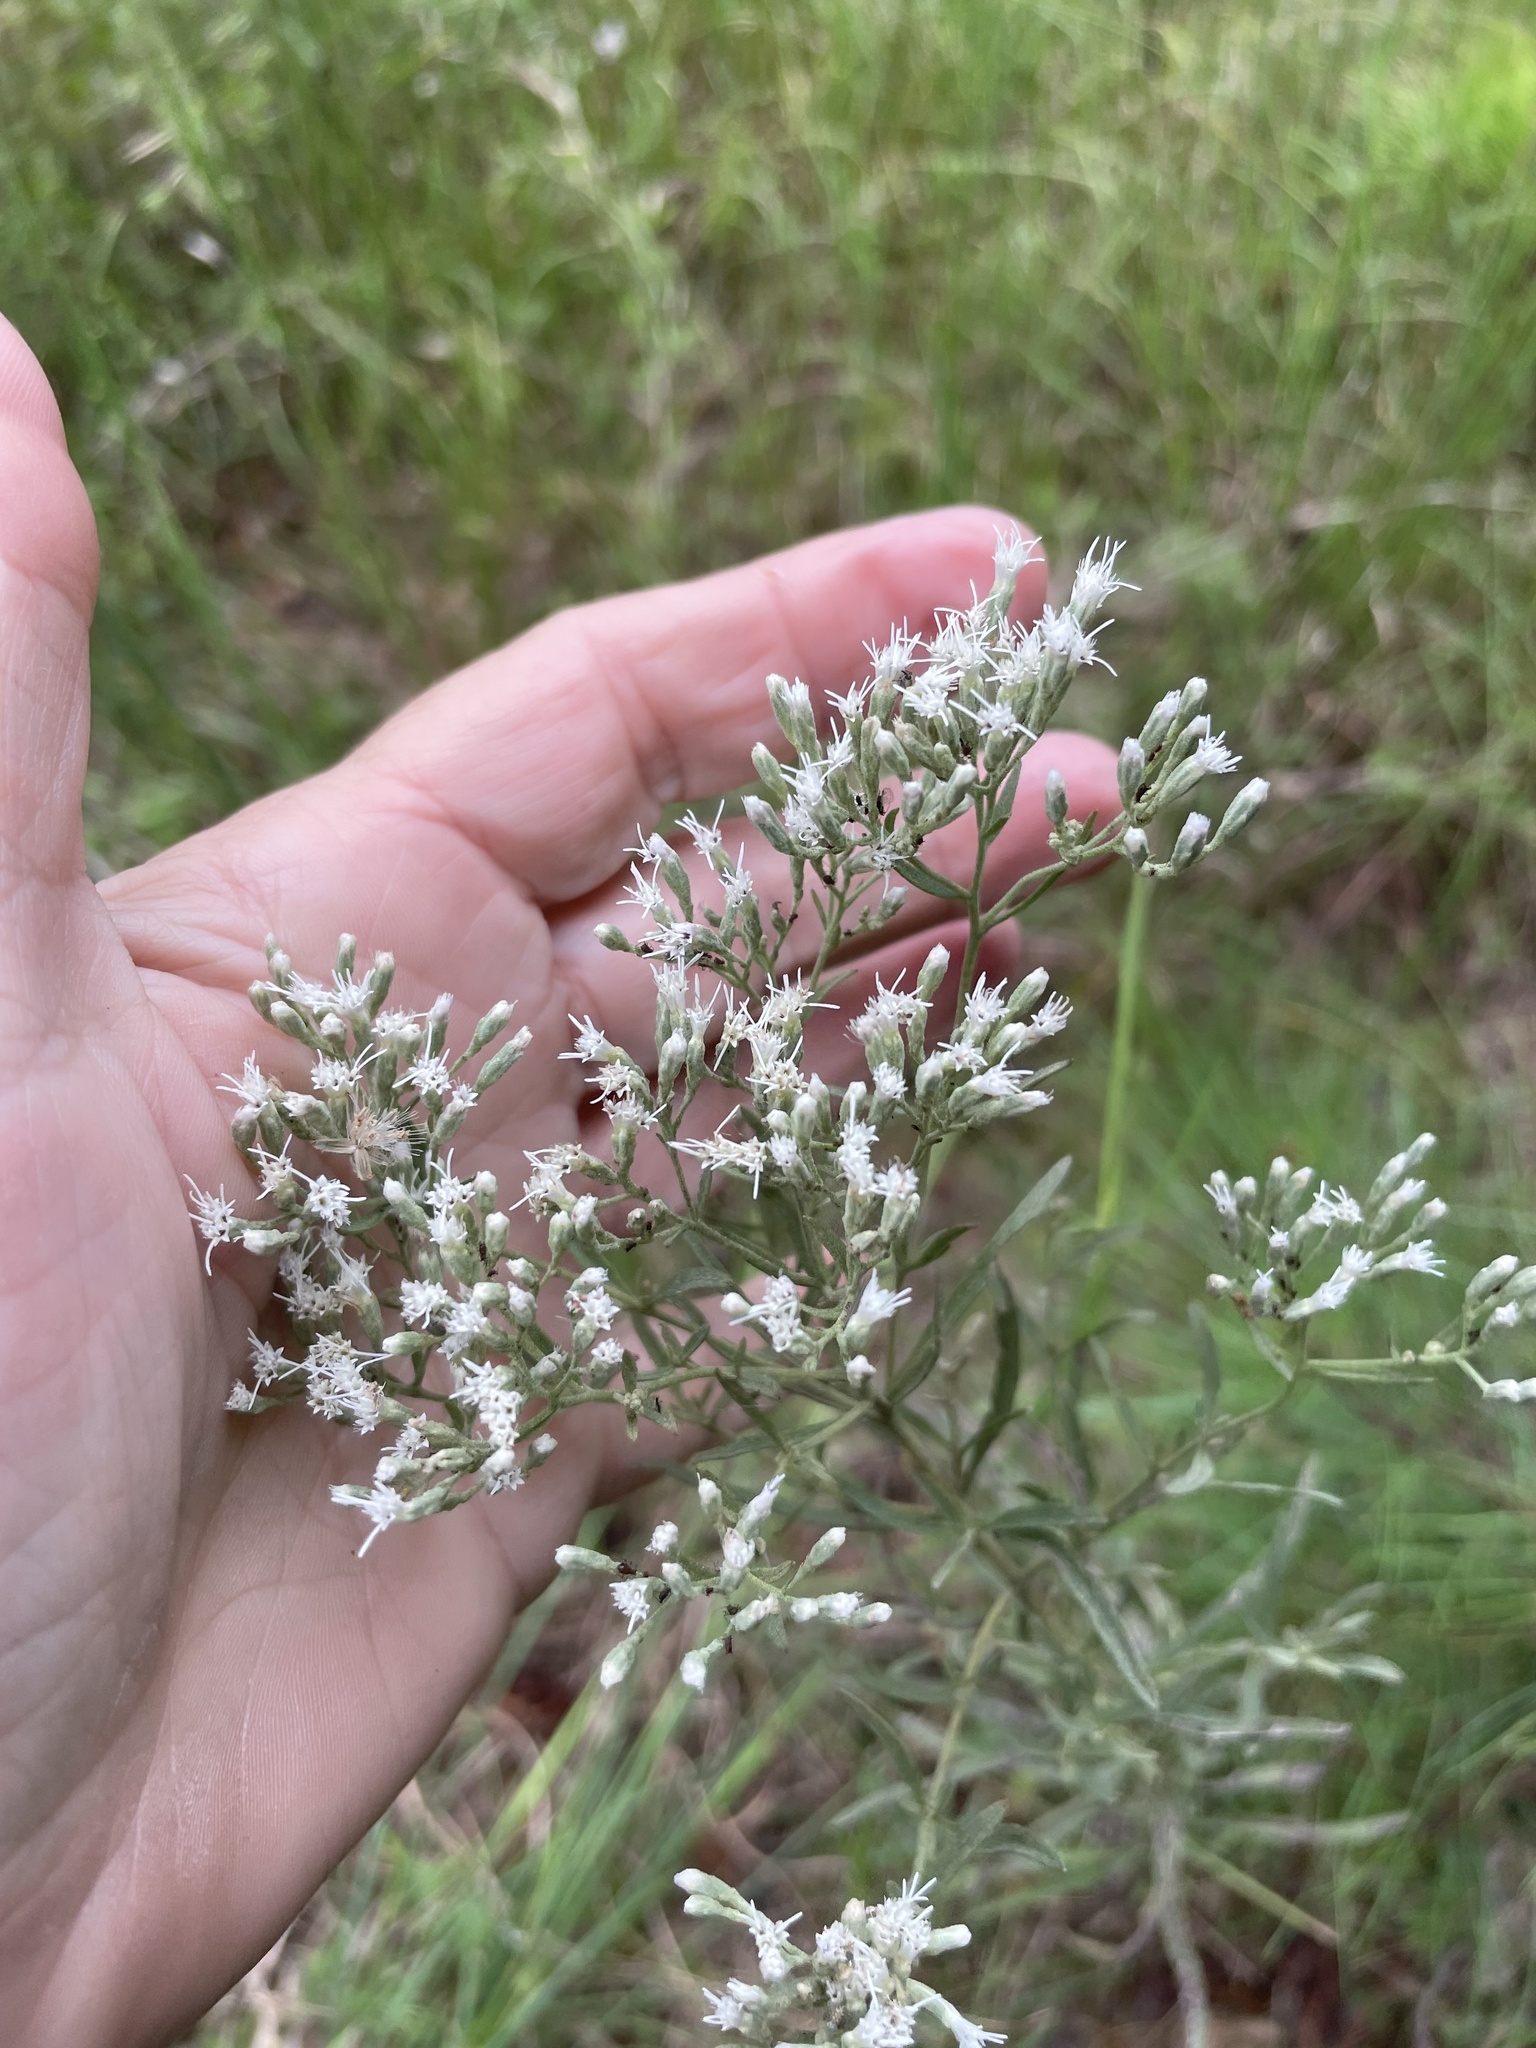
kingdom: Plantae
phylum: Tracheophyta
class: Magnoliopsida
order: Asterales
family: Asteraceae
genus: Eupatorium
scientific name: Eupatorium torreyanum
